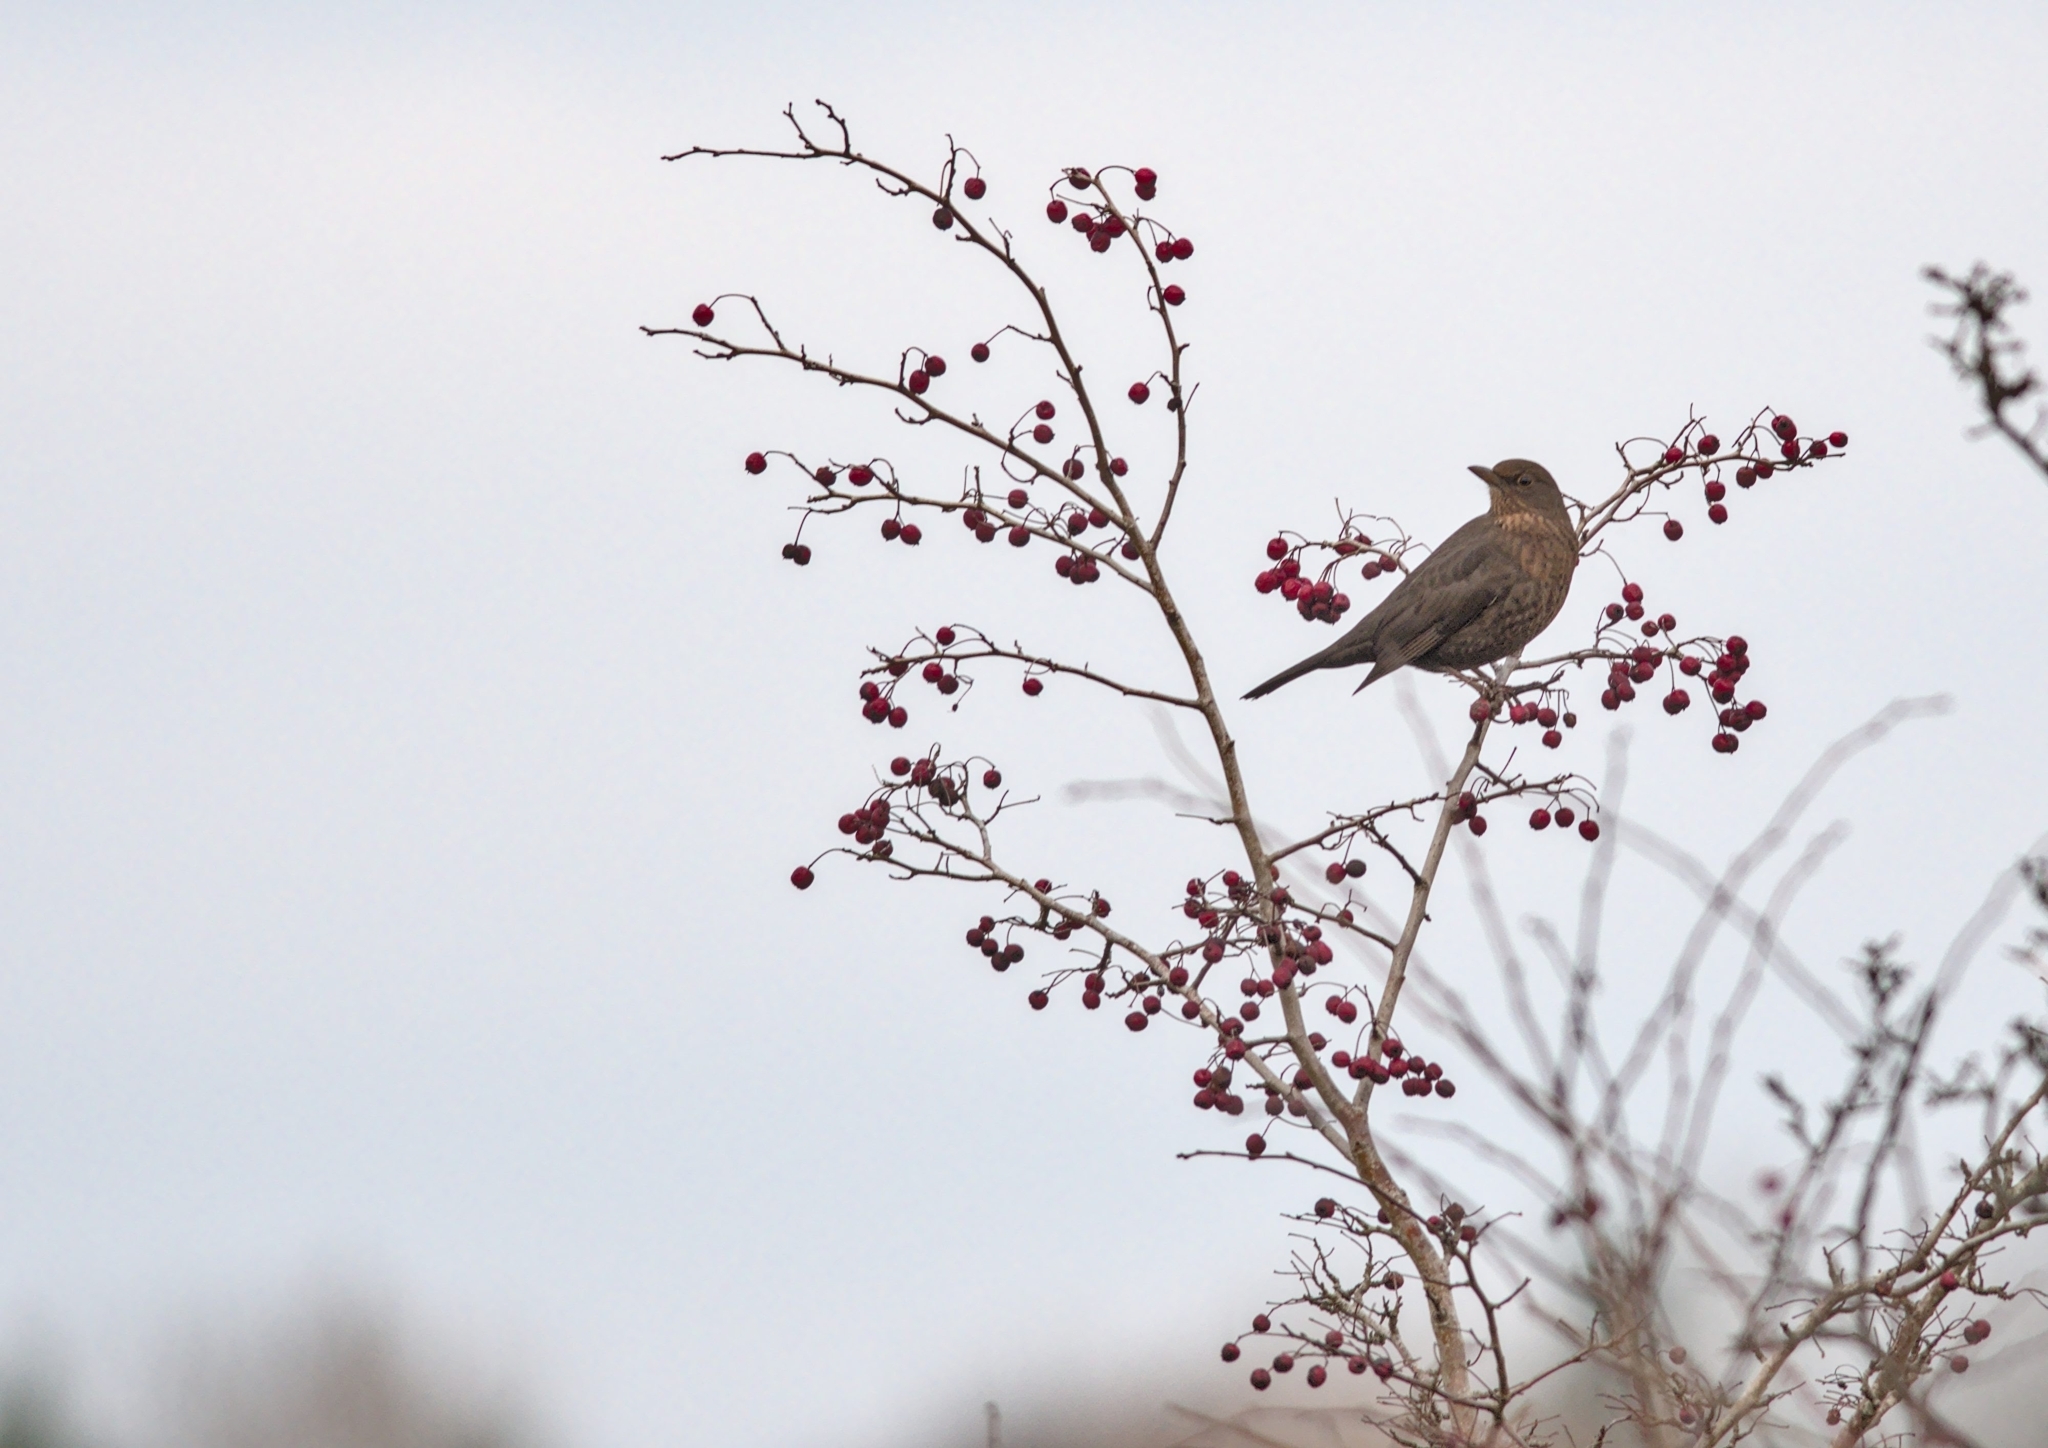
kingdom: Animalia
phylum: Chordata
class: Aves
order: Passeriformes
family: Turdidae
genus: Turdus
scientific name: Turdus merula
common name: Common blackbird
